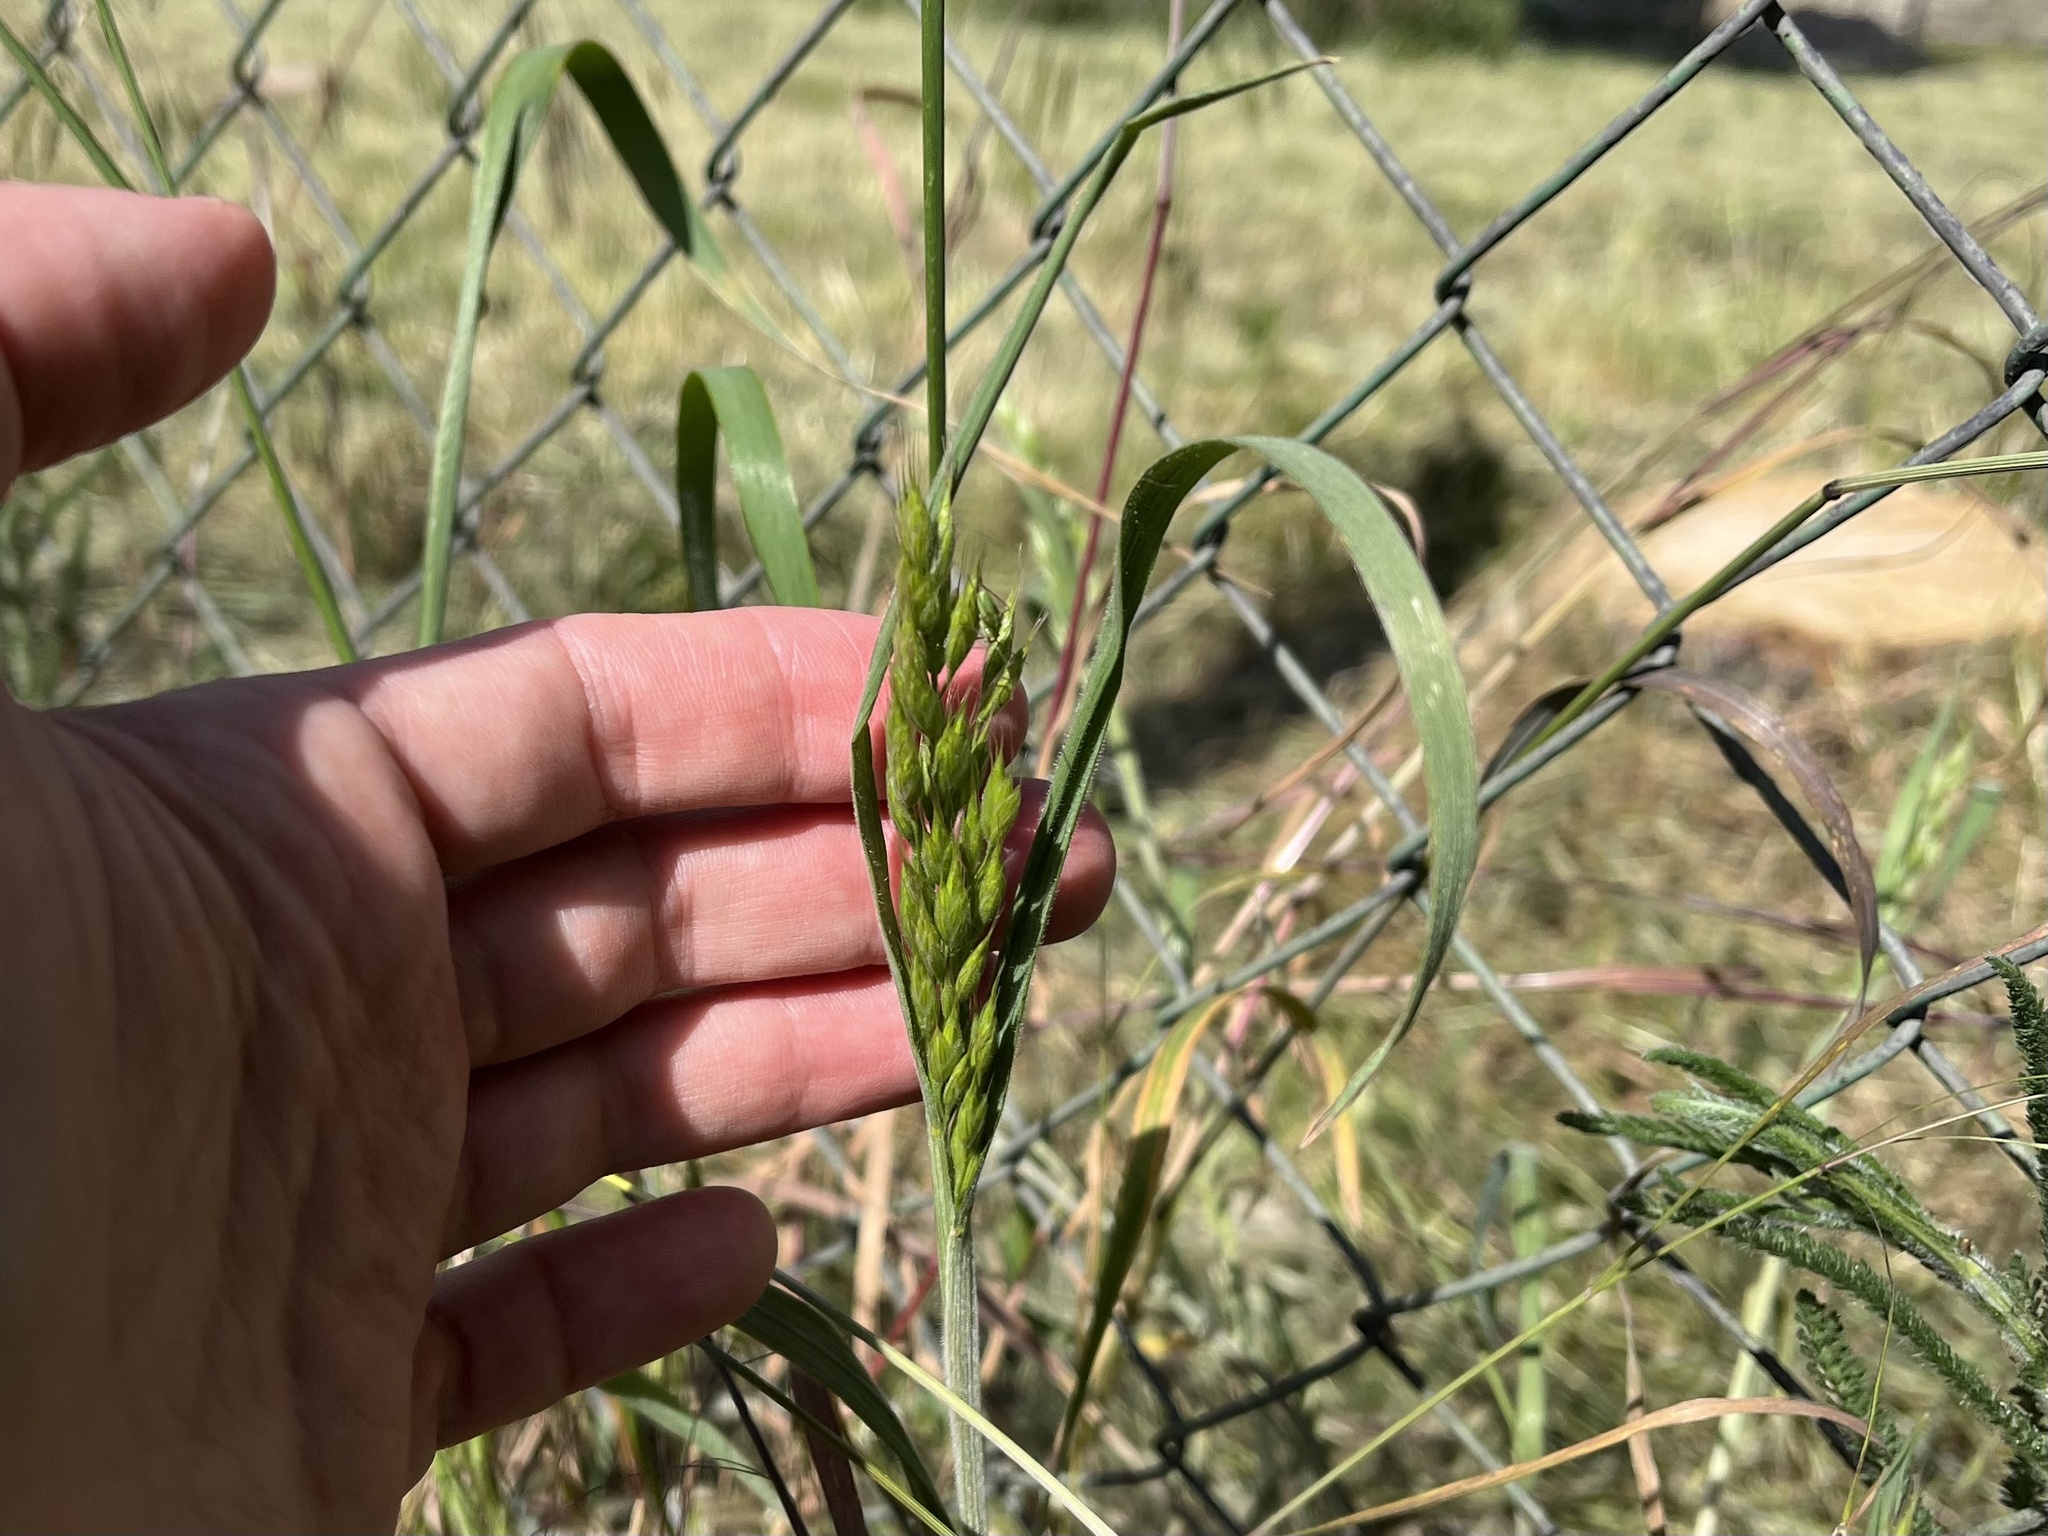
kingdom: Plantae
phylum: Tracheophyta
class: Liliopsida
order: Poales
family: Poaceae
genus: Bromus
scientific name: Bromus hordeaceus
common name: Soft brome
